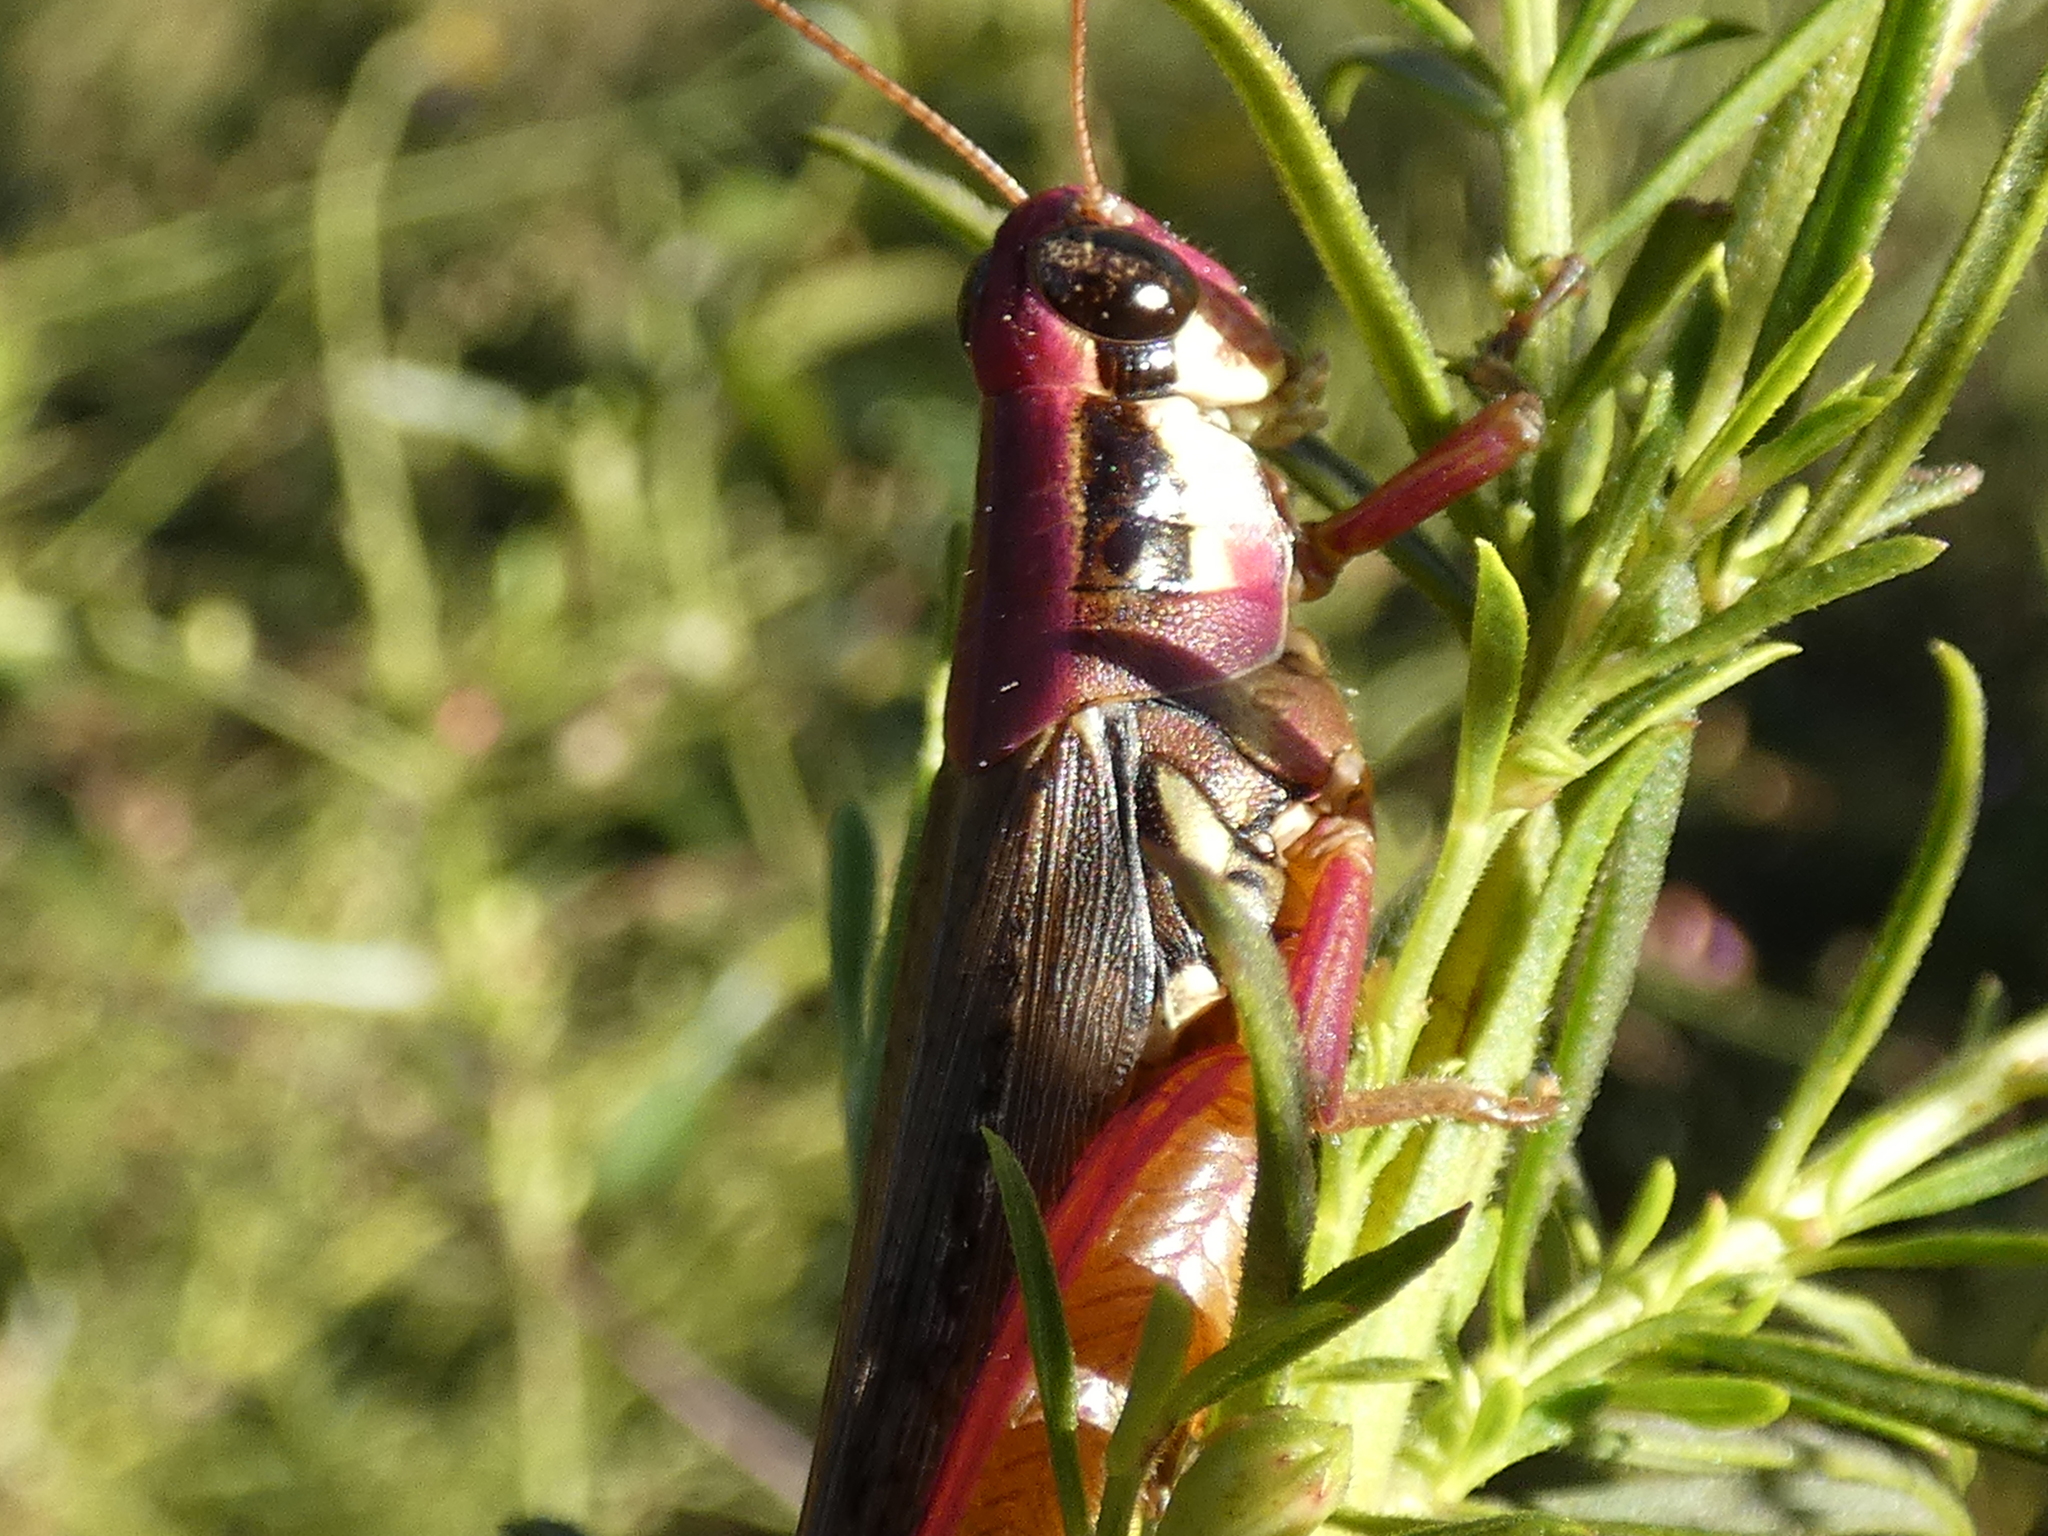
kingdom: Animalia
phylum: Arthropoda
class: Insecta
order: Orthoptera
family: Acrididae
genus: Paroxya
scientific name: Paroxya atlantica
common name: Atlantic grasshopper
